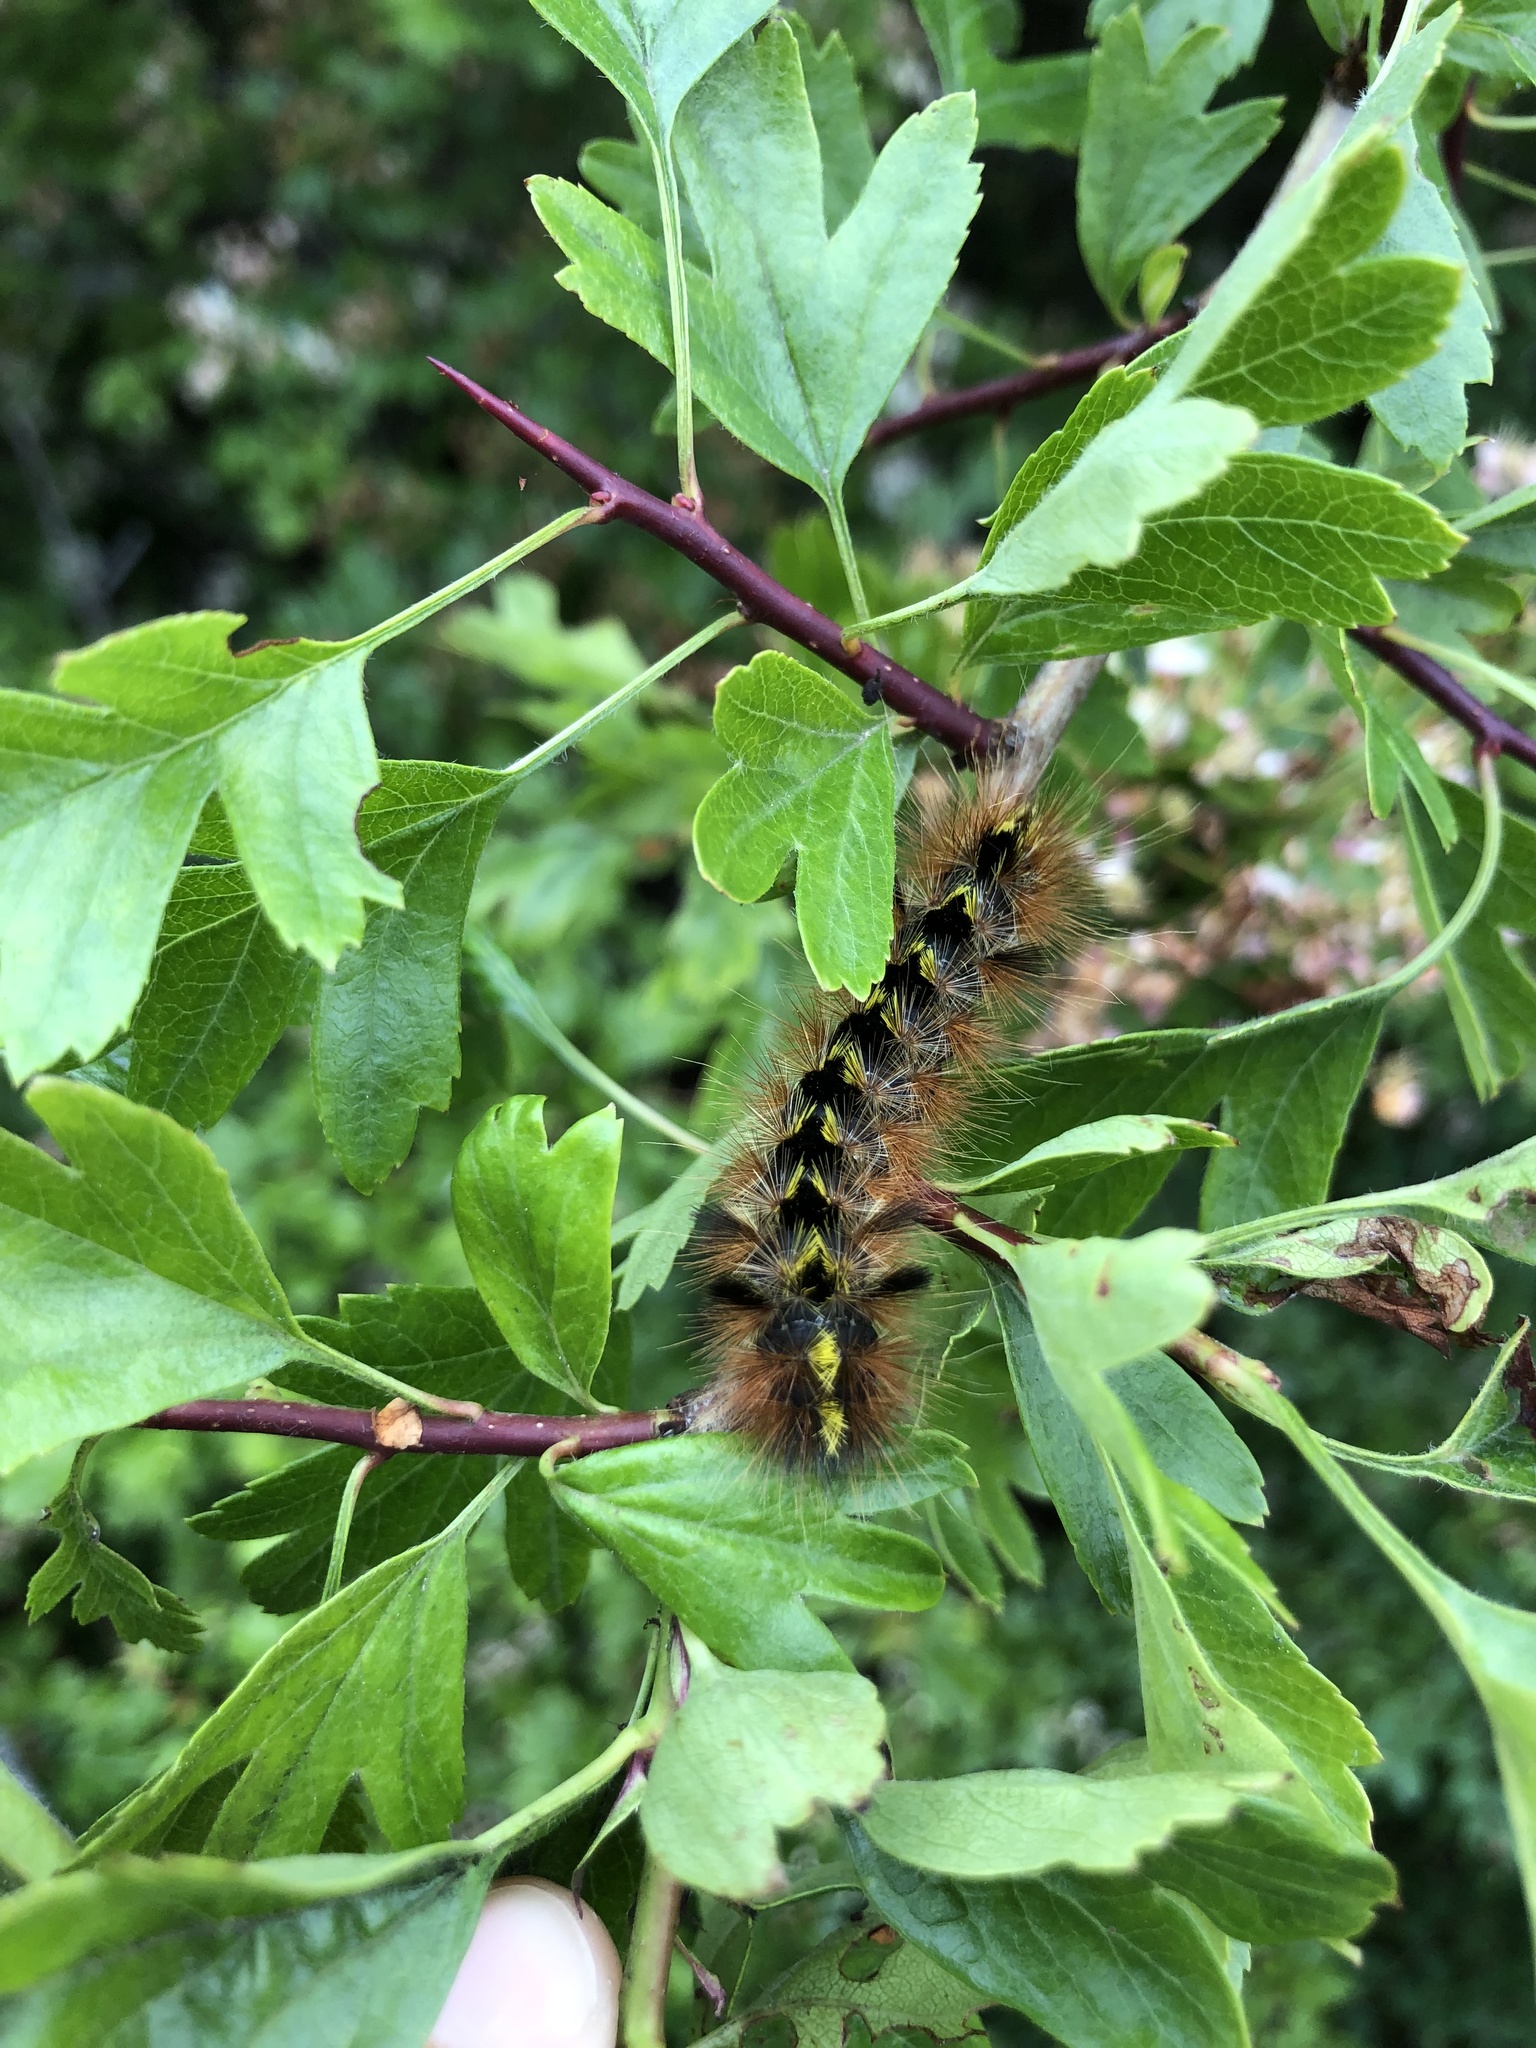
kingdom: Animalia
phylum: Arthropoda
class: Insecta
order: Lepidoptera
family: Erebidae
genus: Lophocampa
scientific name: Lophocampa argentata
